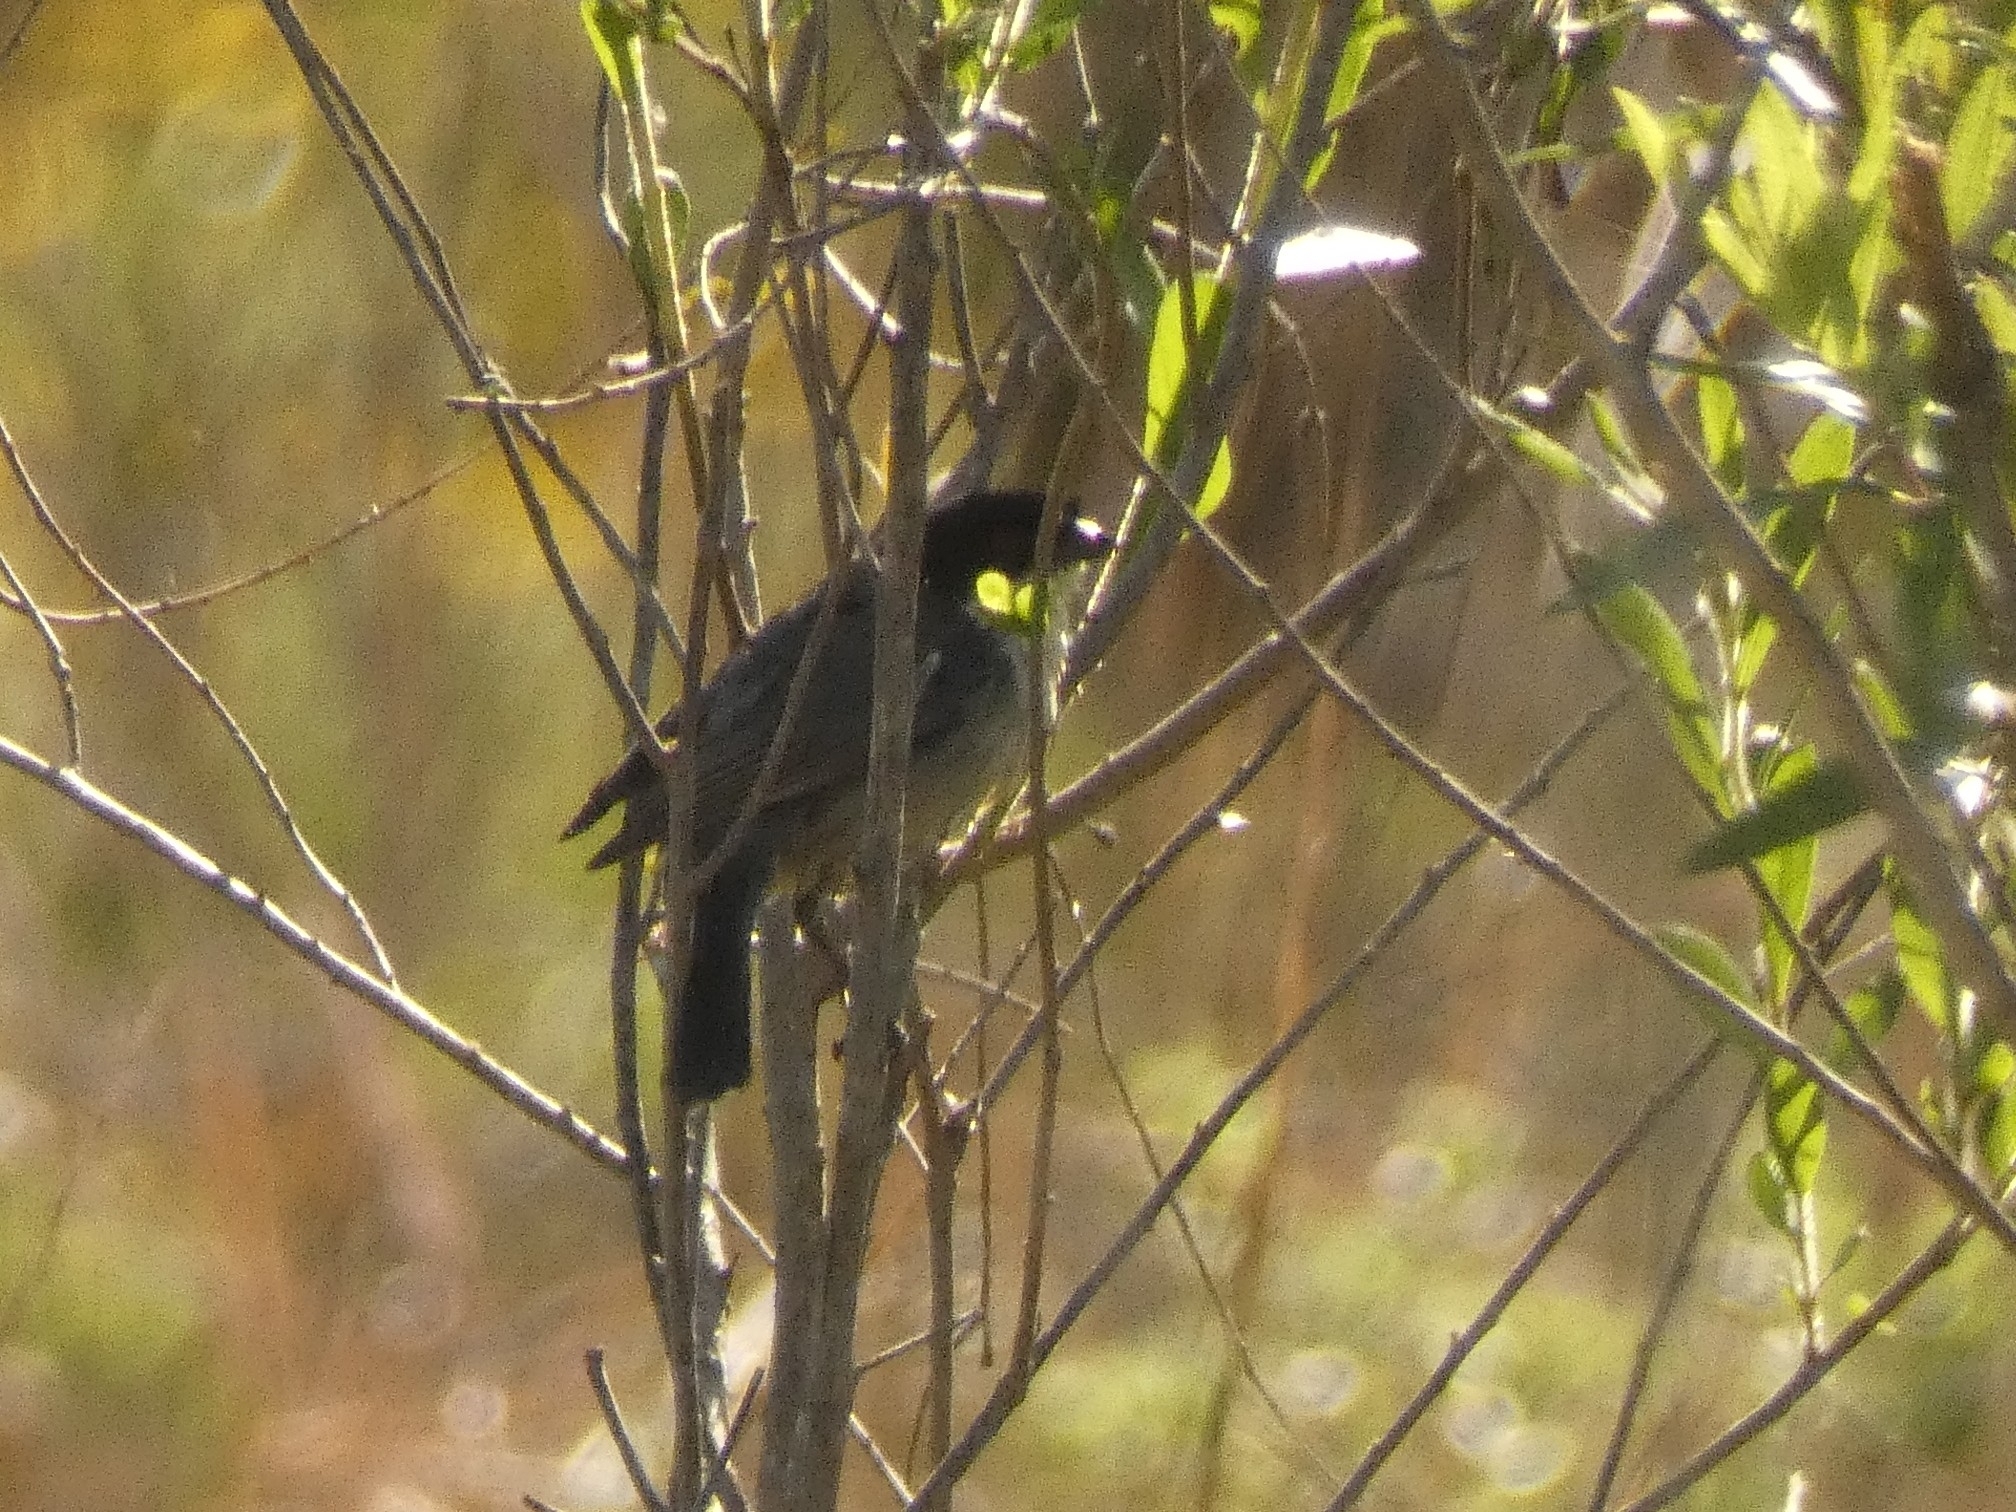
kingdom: Animalia
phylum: Chordata
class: Aves
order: Passeriformes
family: Thraupidae
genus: Microspingus
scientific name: Microspingus melanoleucus
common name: Black-capped warbling-finch
